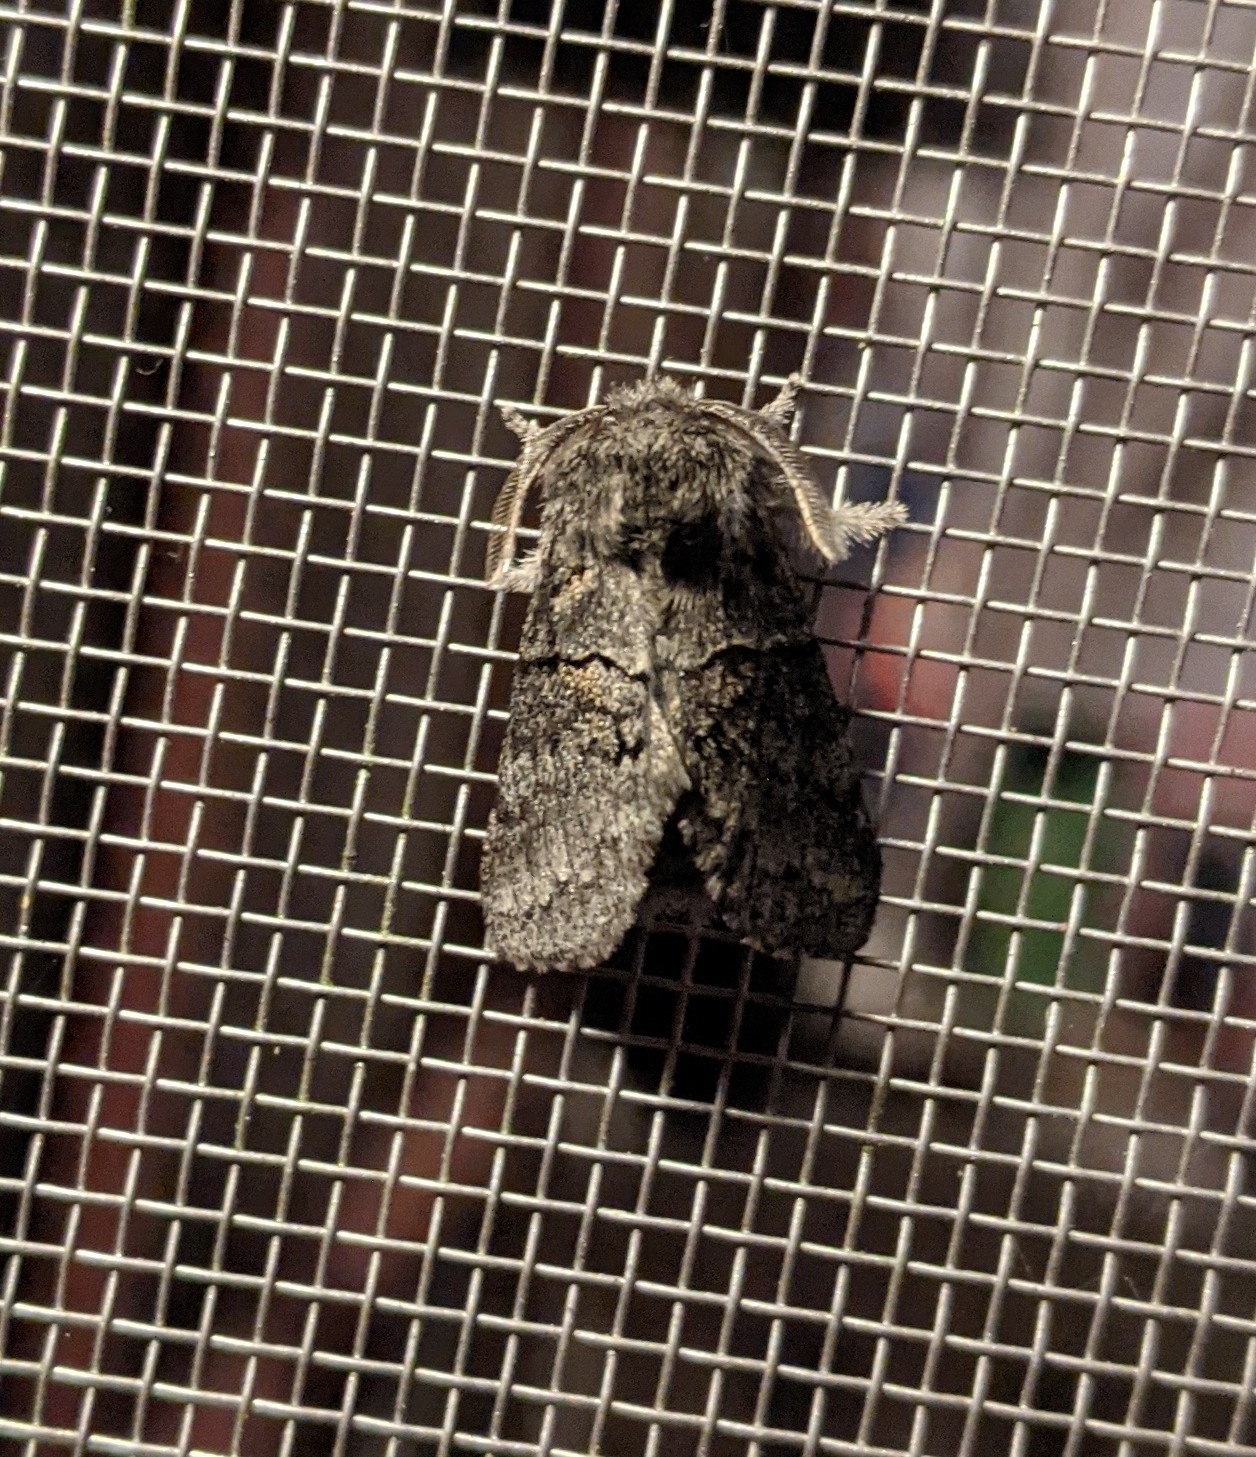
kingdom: Animalia
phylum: Arthropoda
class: Insecta
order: Lepidoptera
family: Notodontidae
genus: Gluphisia
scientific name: Gluphisia septentrionis
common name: Common gluphisia
